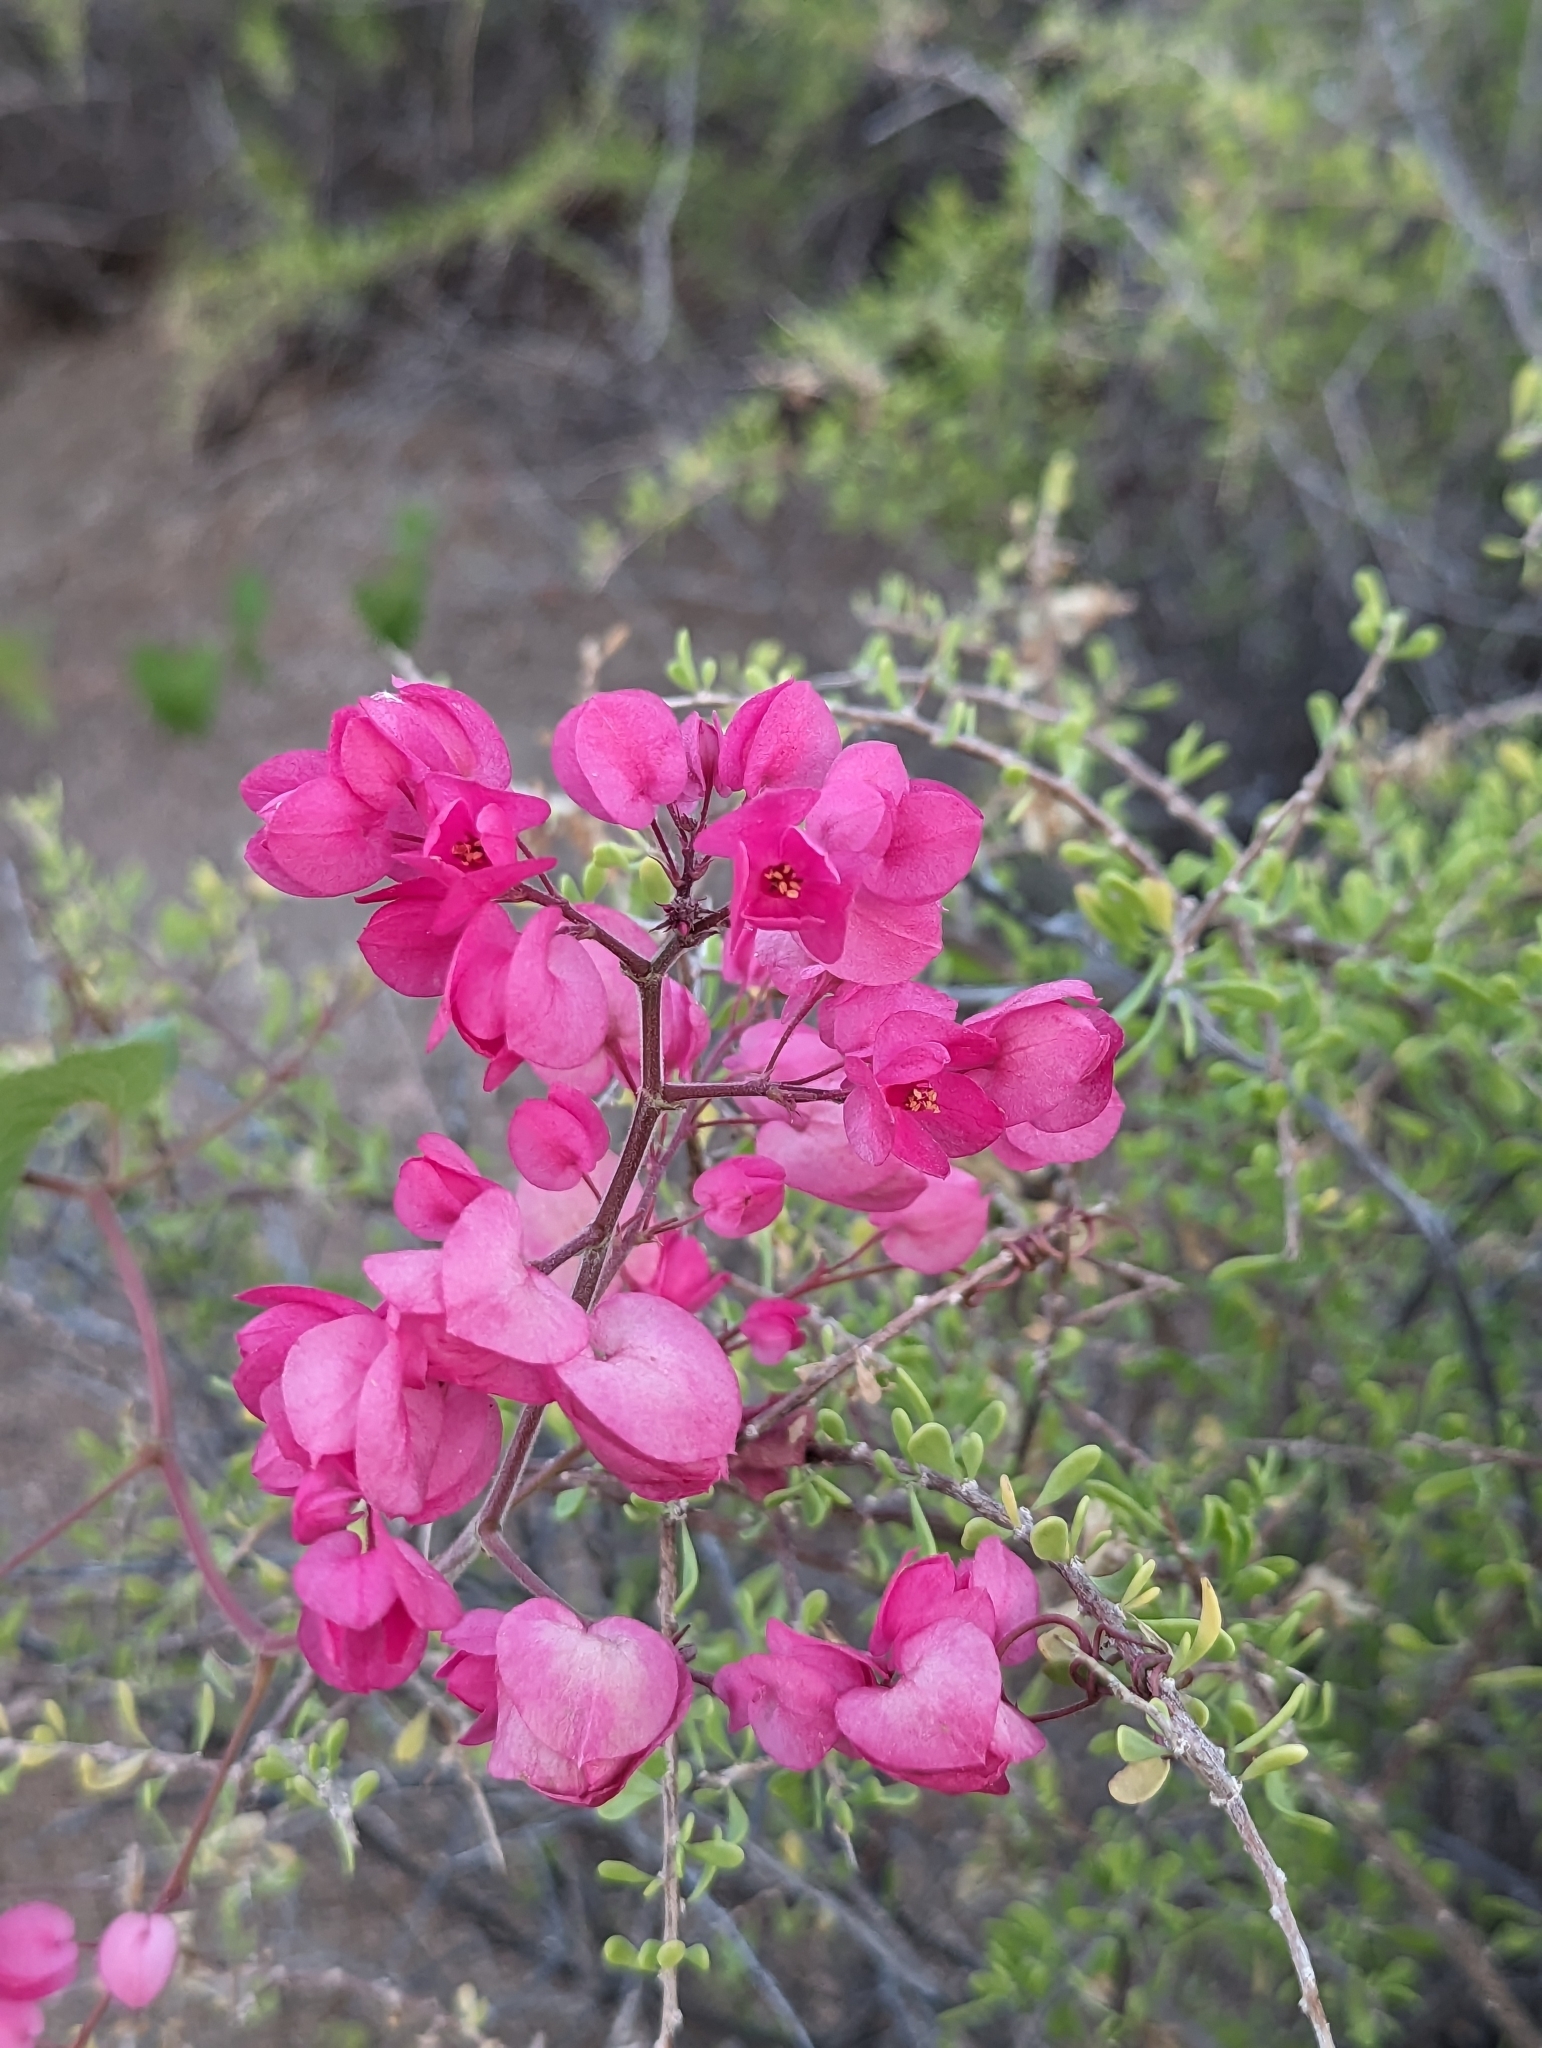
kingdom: Plantae
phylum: Tracheophyta
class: Magnoliopsida
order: Caryophyllales
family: Polygonaceae
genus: Antigonon
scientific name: Antigonon leptopus
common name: Coral vine
